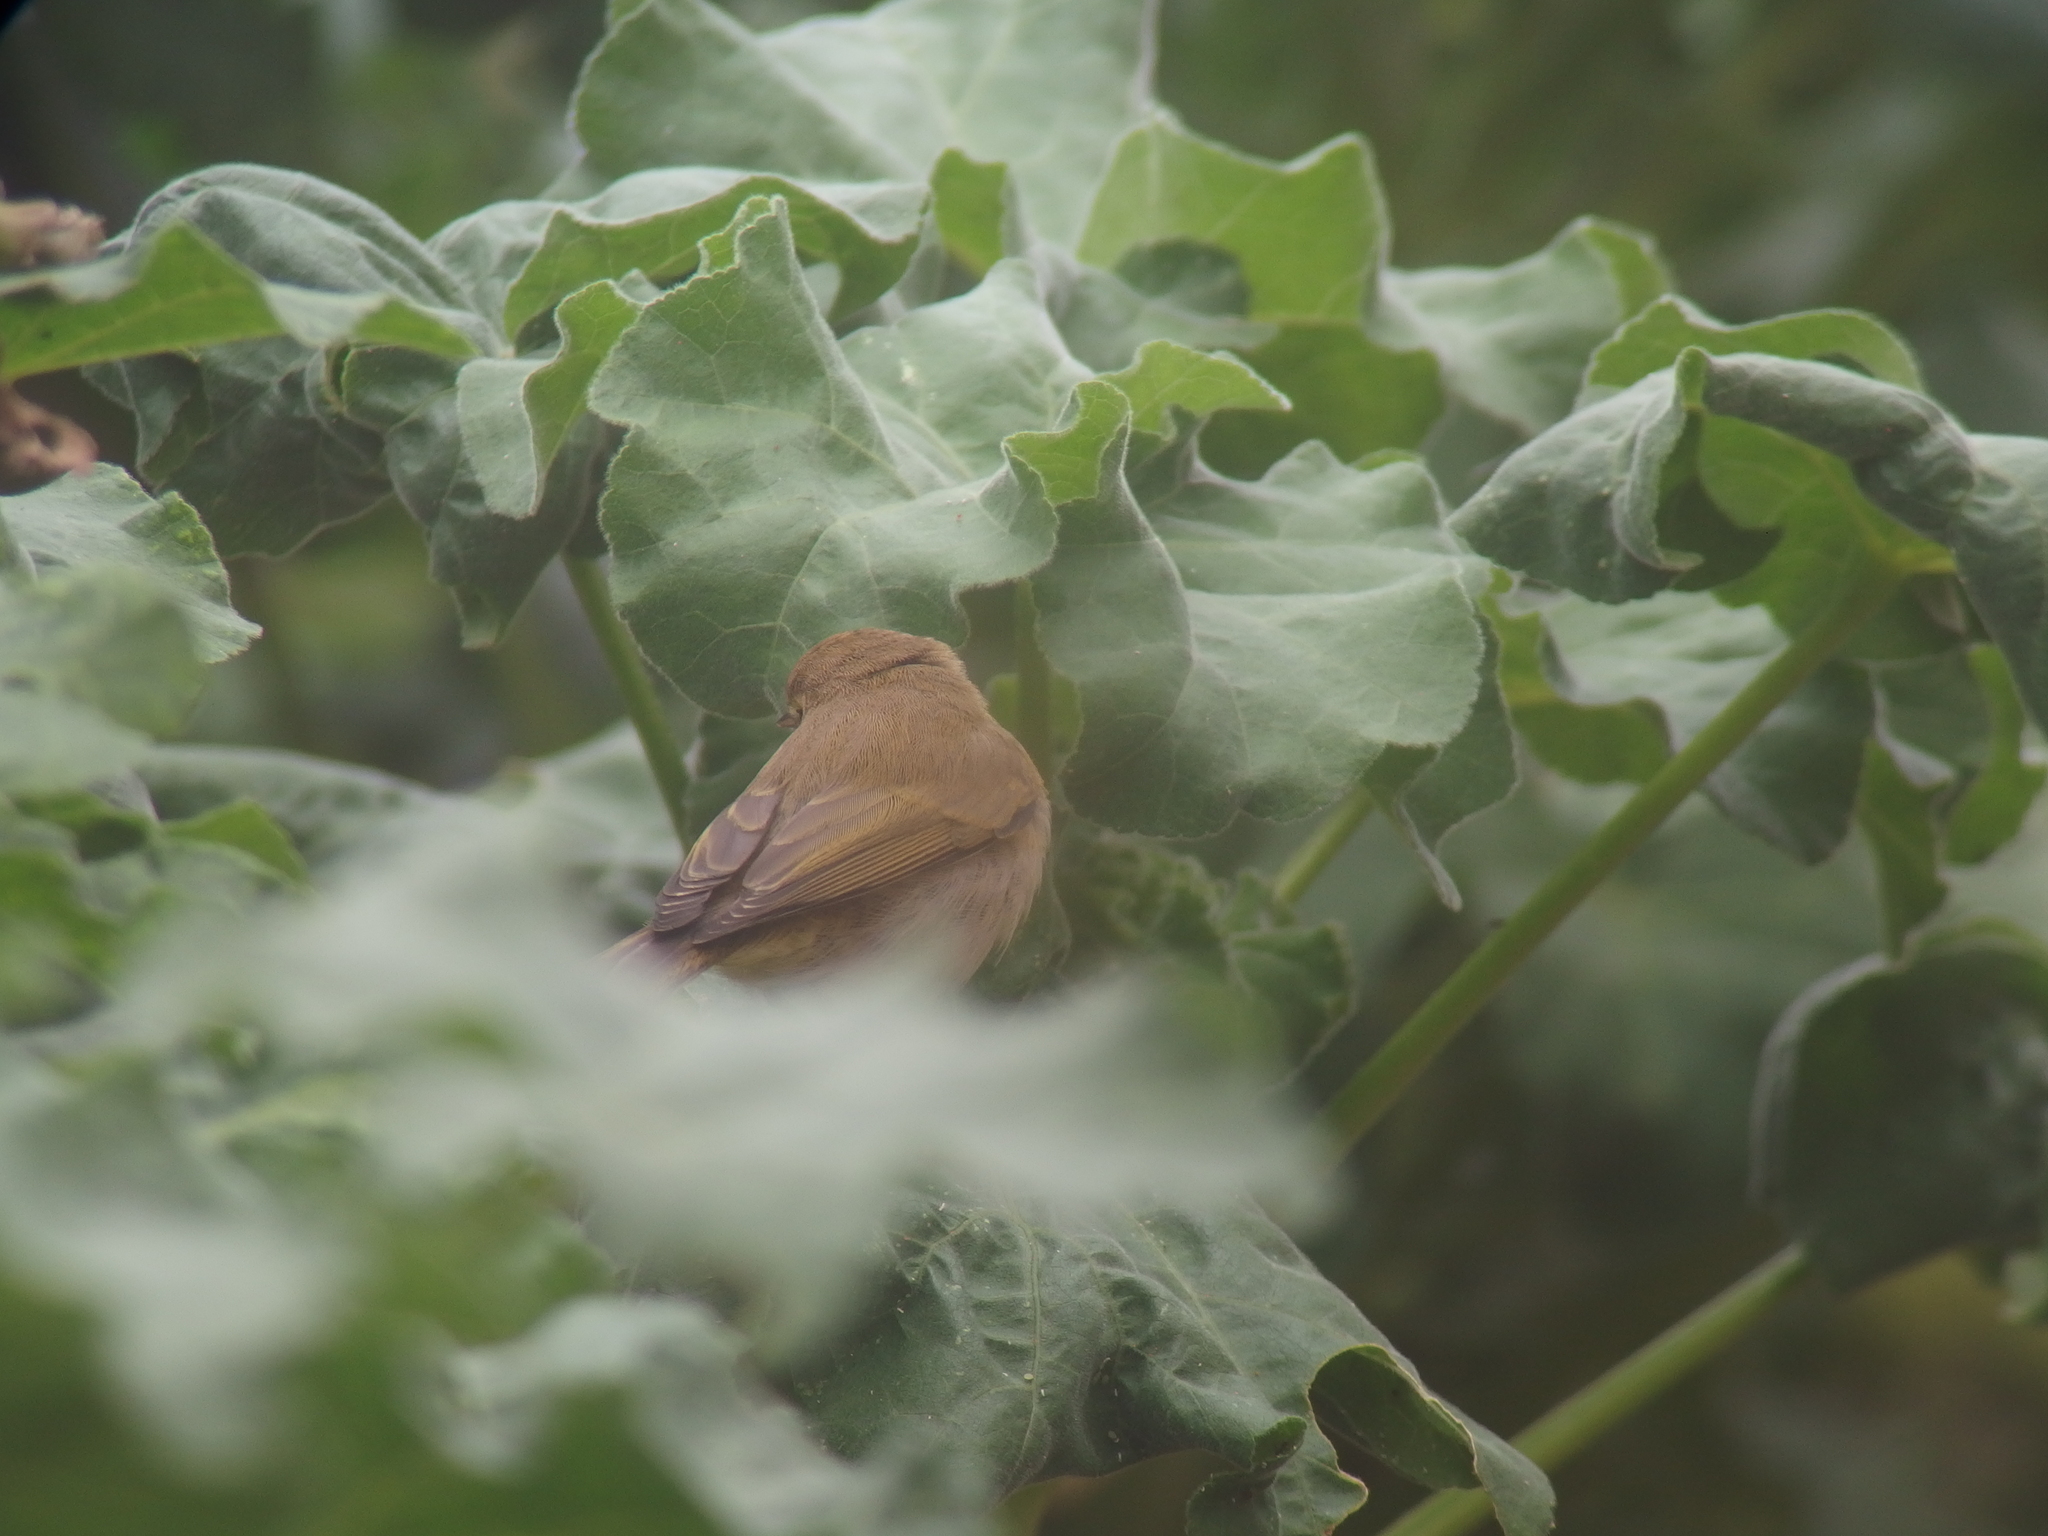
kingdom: Animalia
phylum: Chordata
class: Aves
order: Passeriformes
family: Phylloscopidae
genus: Phylloscopus
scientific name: Phylloscopus collybita
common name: Common chiffchaff
